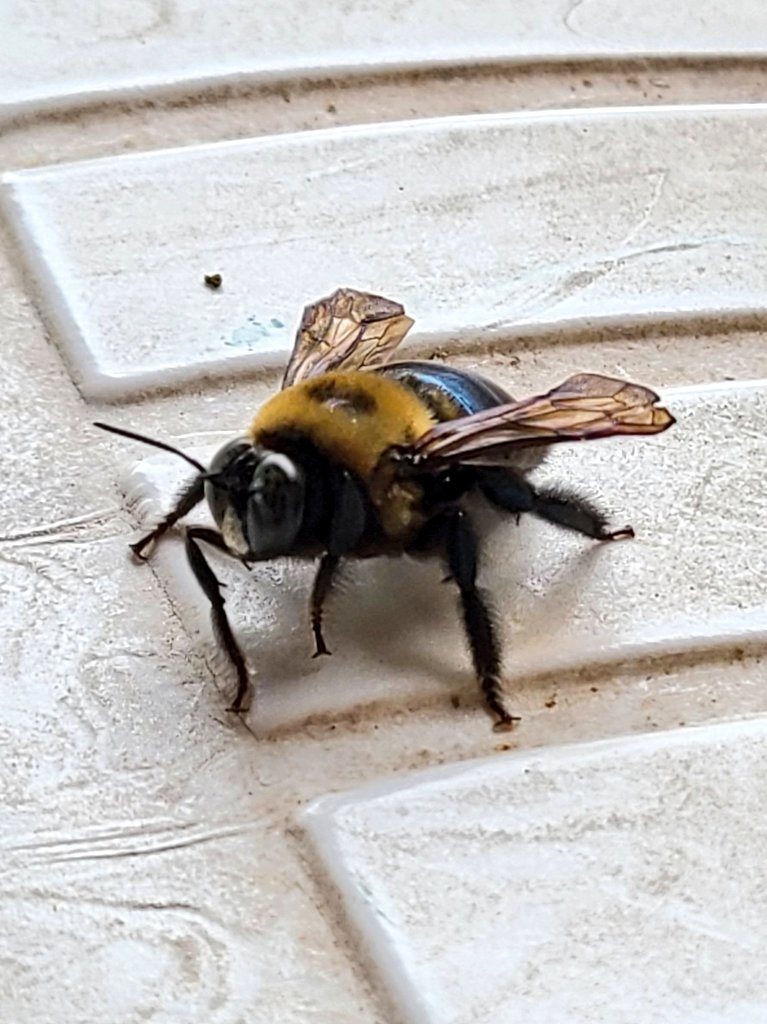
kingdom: Animalia
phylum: Arthropoda
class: Insecta
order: Hymenoptera
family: Apidae
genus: Xylocopa
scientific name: Xylocopa virginica
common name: Carpenter bee
